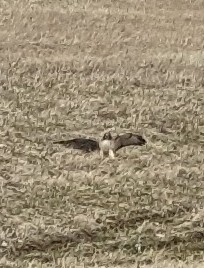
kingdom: Animalia
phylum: Chordata
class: Aves
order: Accipitriformes
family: Accipitridae
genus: Buteo
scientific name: Buteo jamaicensis
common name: Red-tailed hawk
